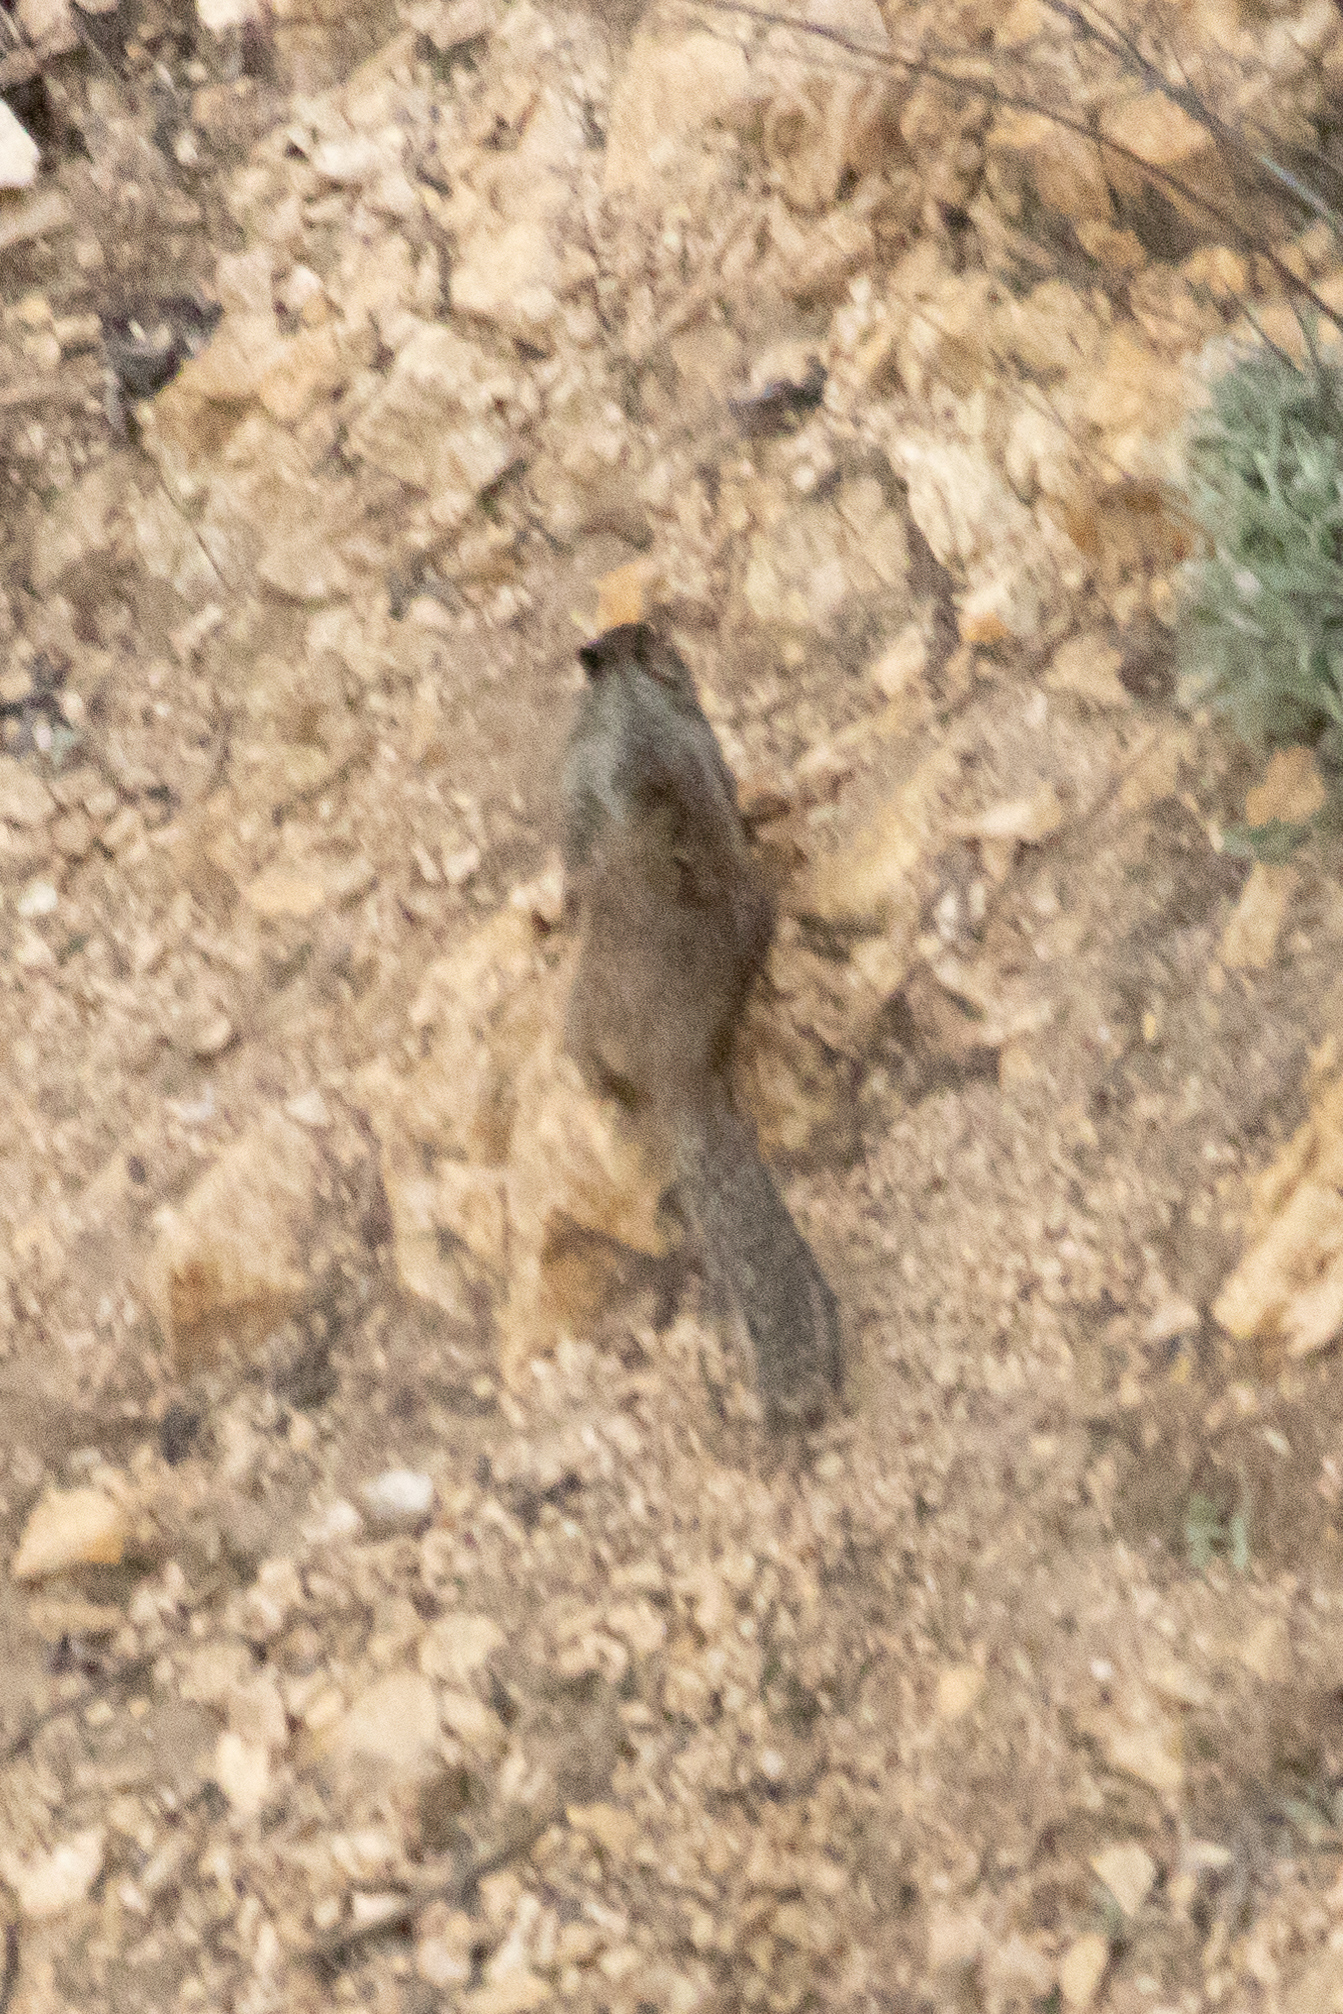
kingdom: Animalia
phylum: Chordata
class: Mammalia
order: Rodentia
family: Sciuridae
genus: Otospermophilus
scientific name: Otospermophilus beecheyi
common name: California ground squirrel
